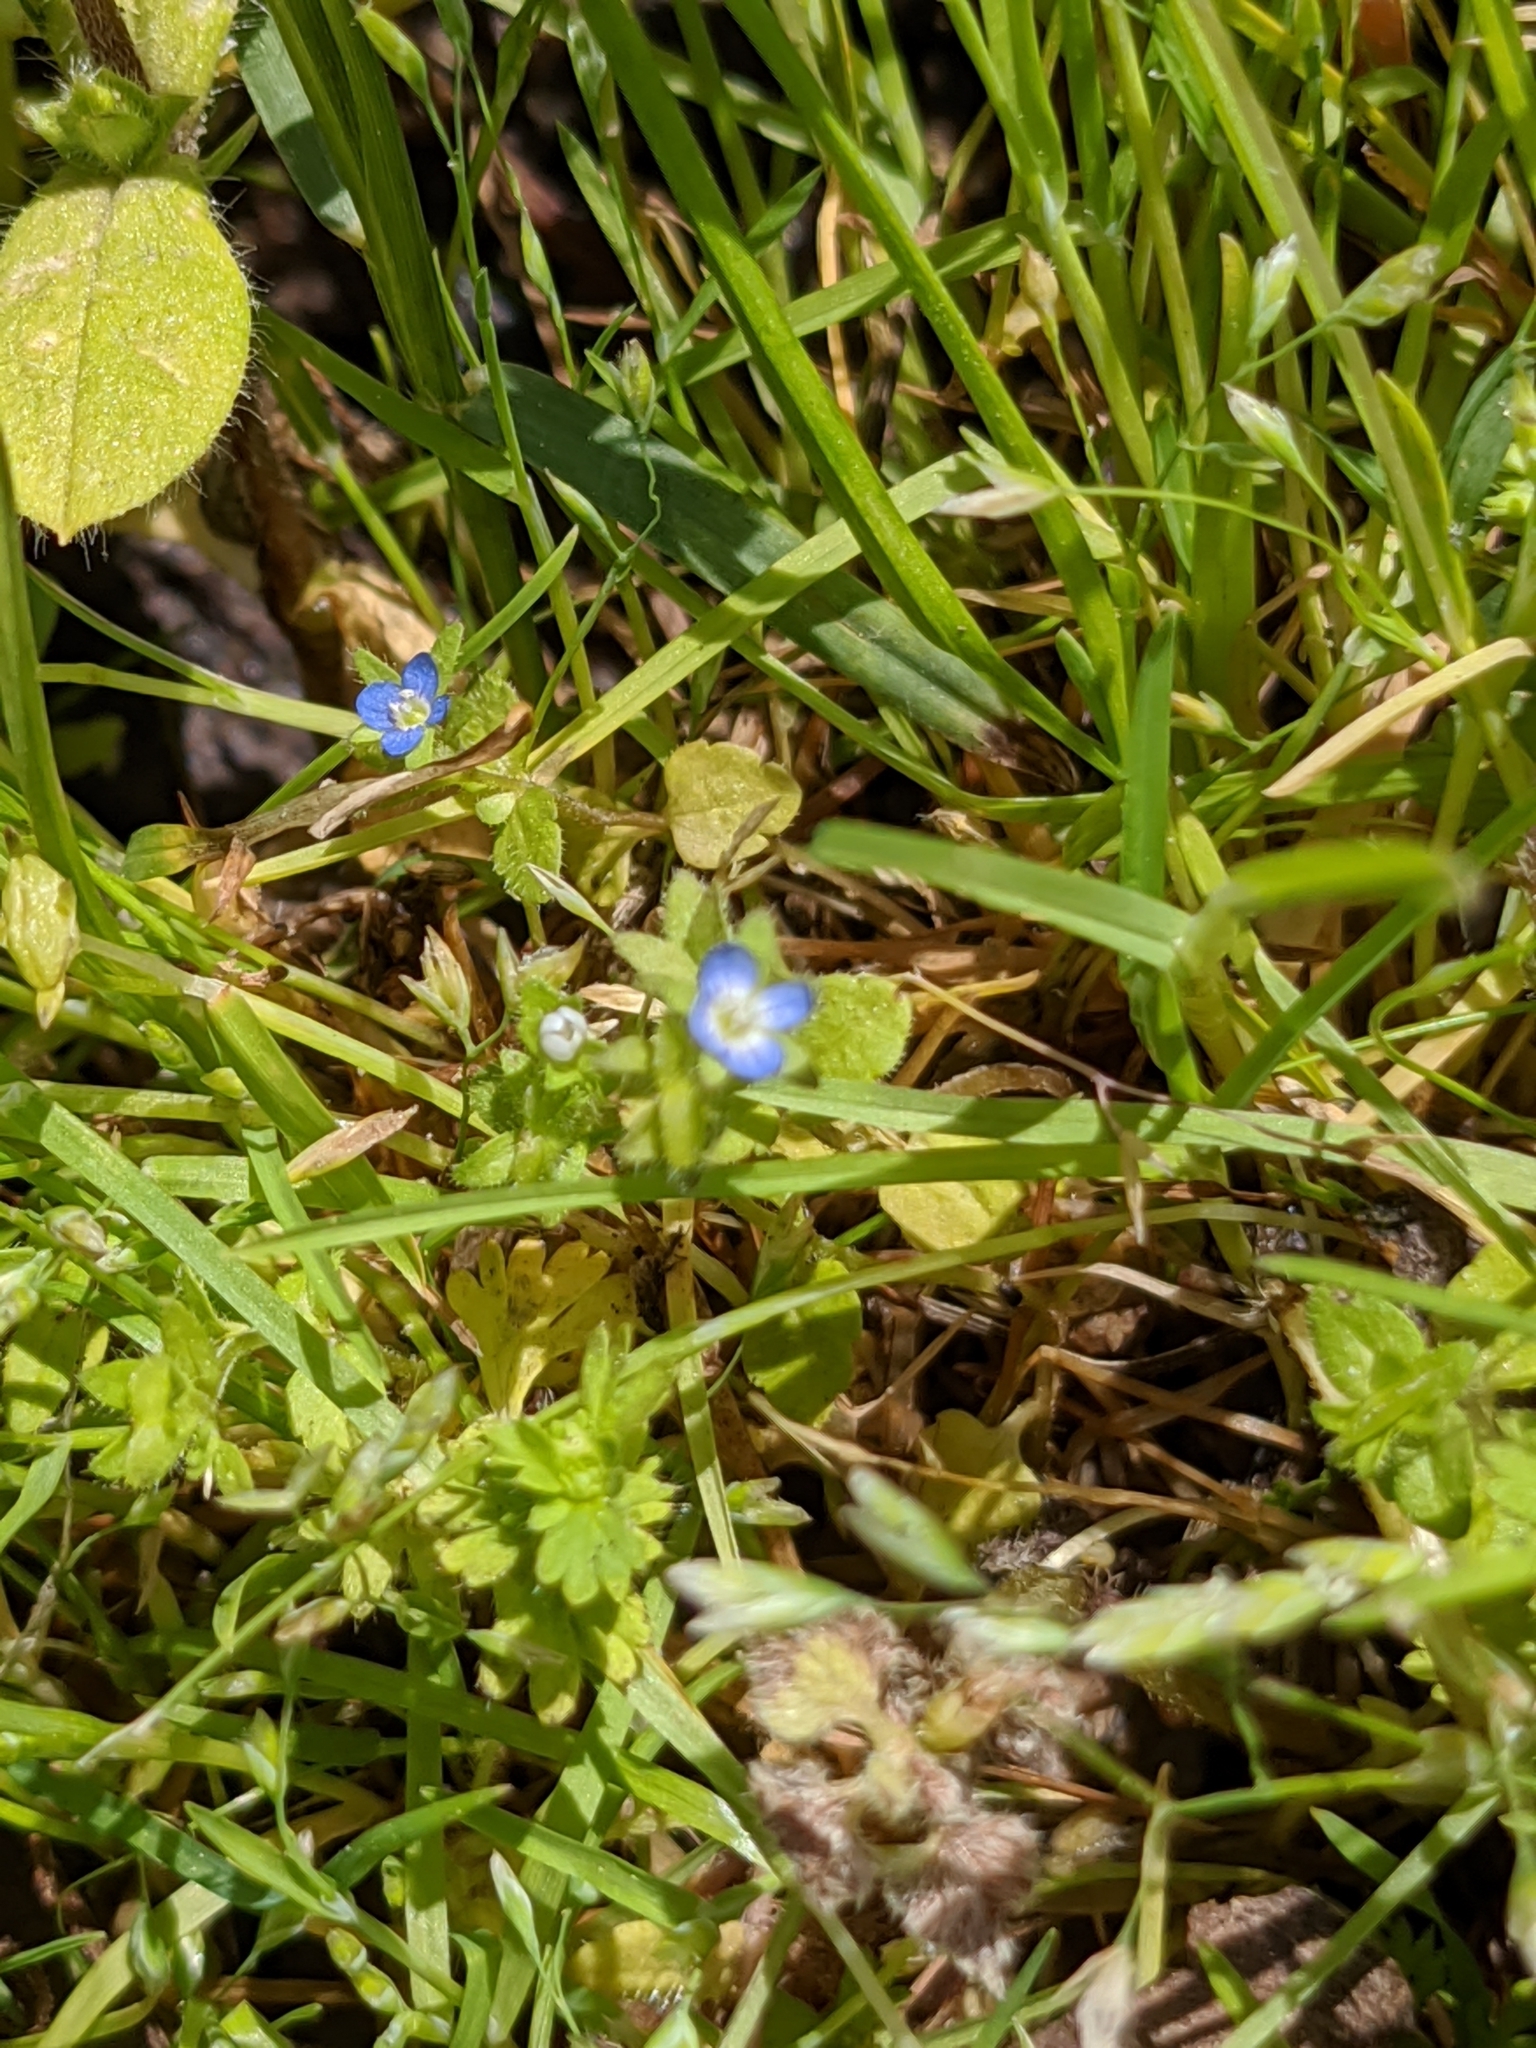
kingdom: Plantae
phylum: Tracheophyta
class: Magnoliopsida
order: Lamiales
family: Plantaginaceae
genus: Veronica
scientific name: Veronica arvensis
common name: Corn speedwell
